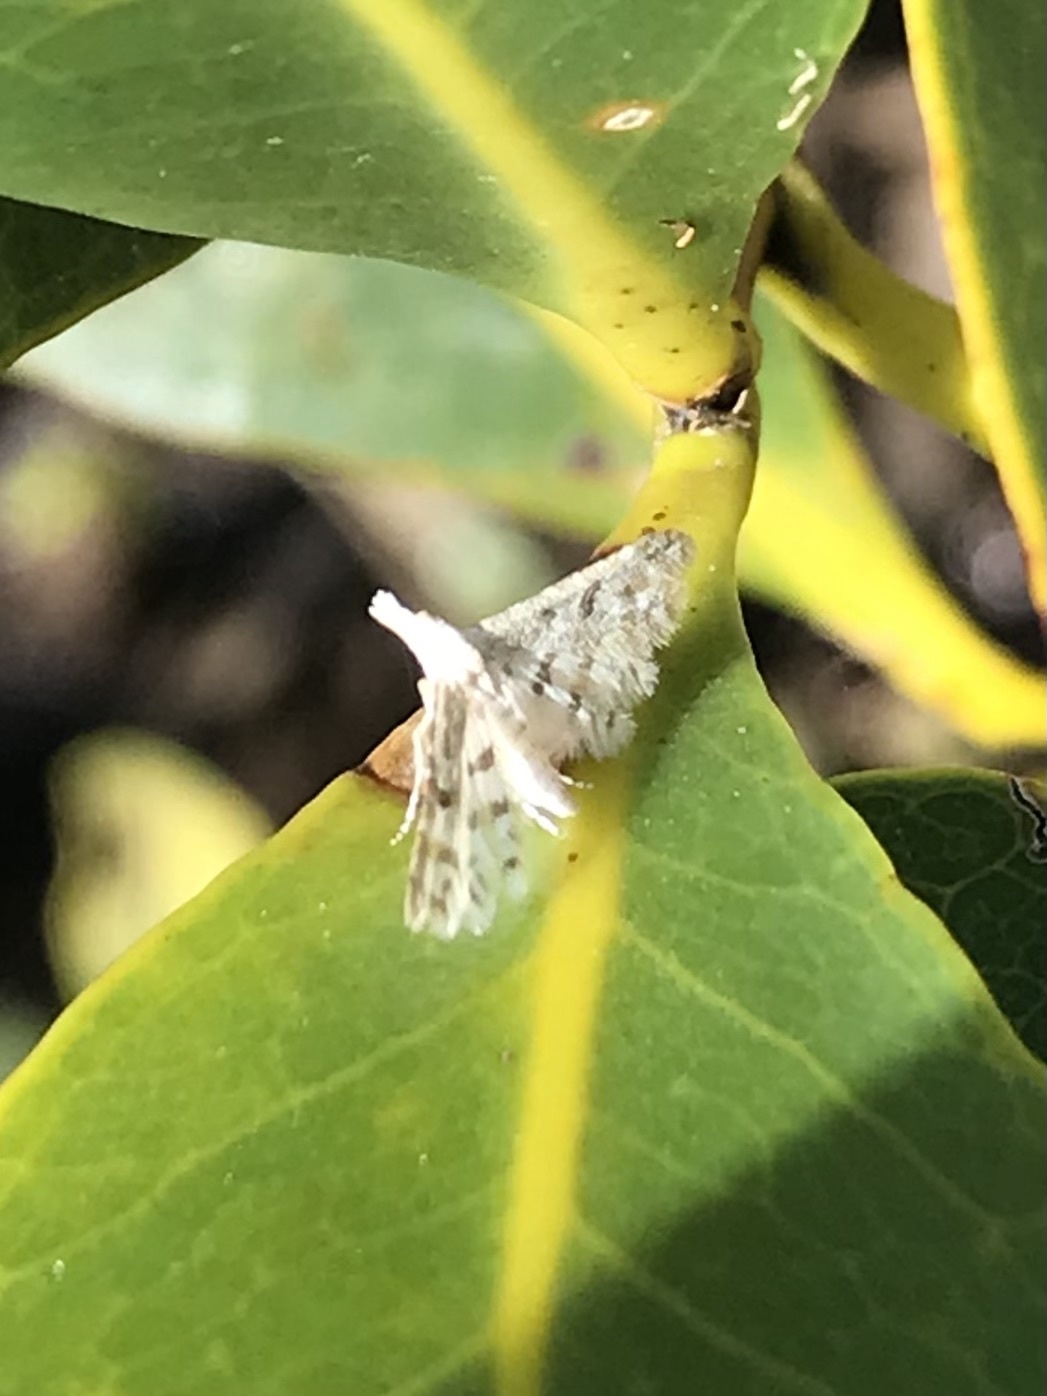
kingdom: Animalia
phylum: Arthropoda
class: Insecta
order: Lepidoptera
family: Alucitidae
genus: Cenoloba
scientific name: Cenoloba obliteralis
